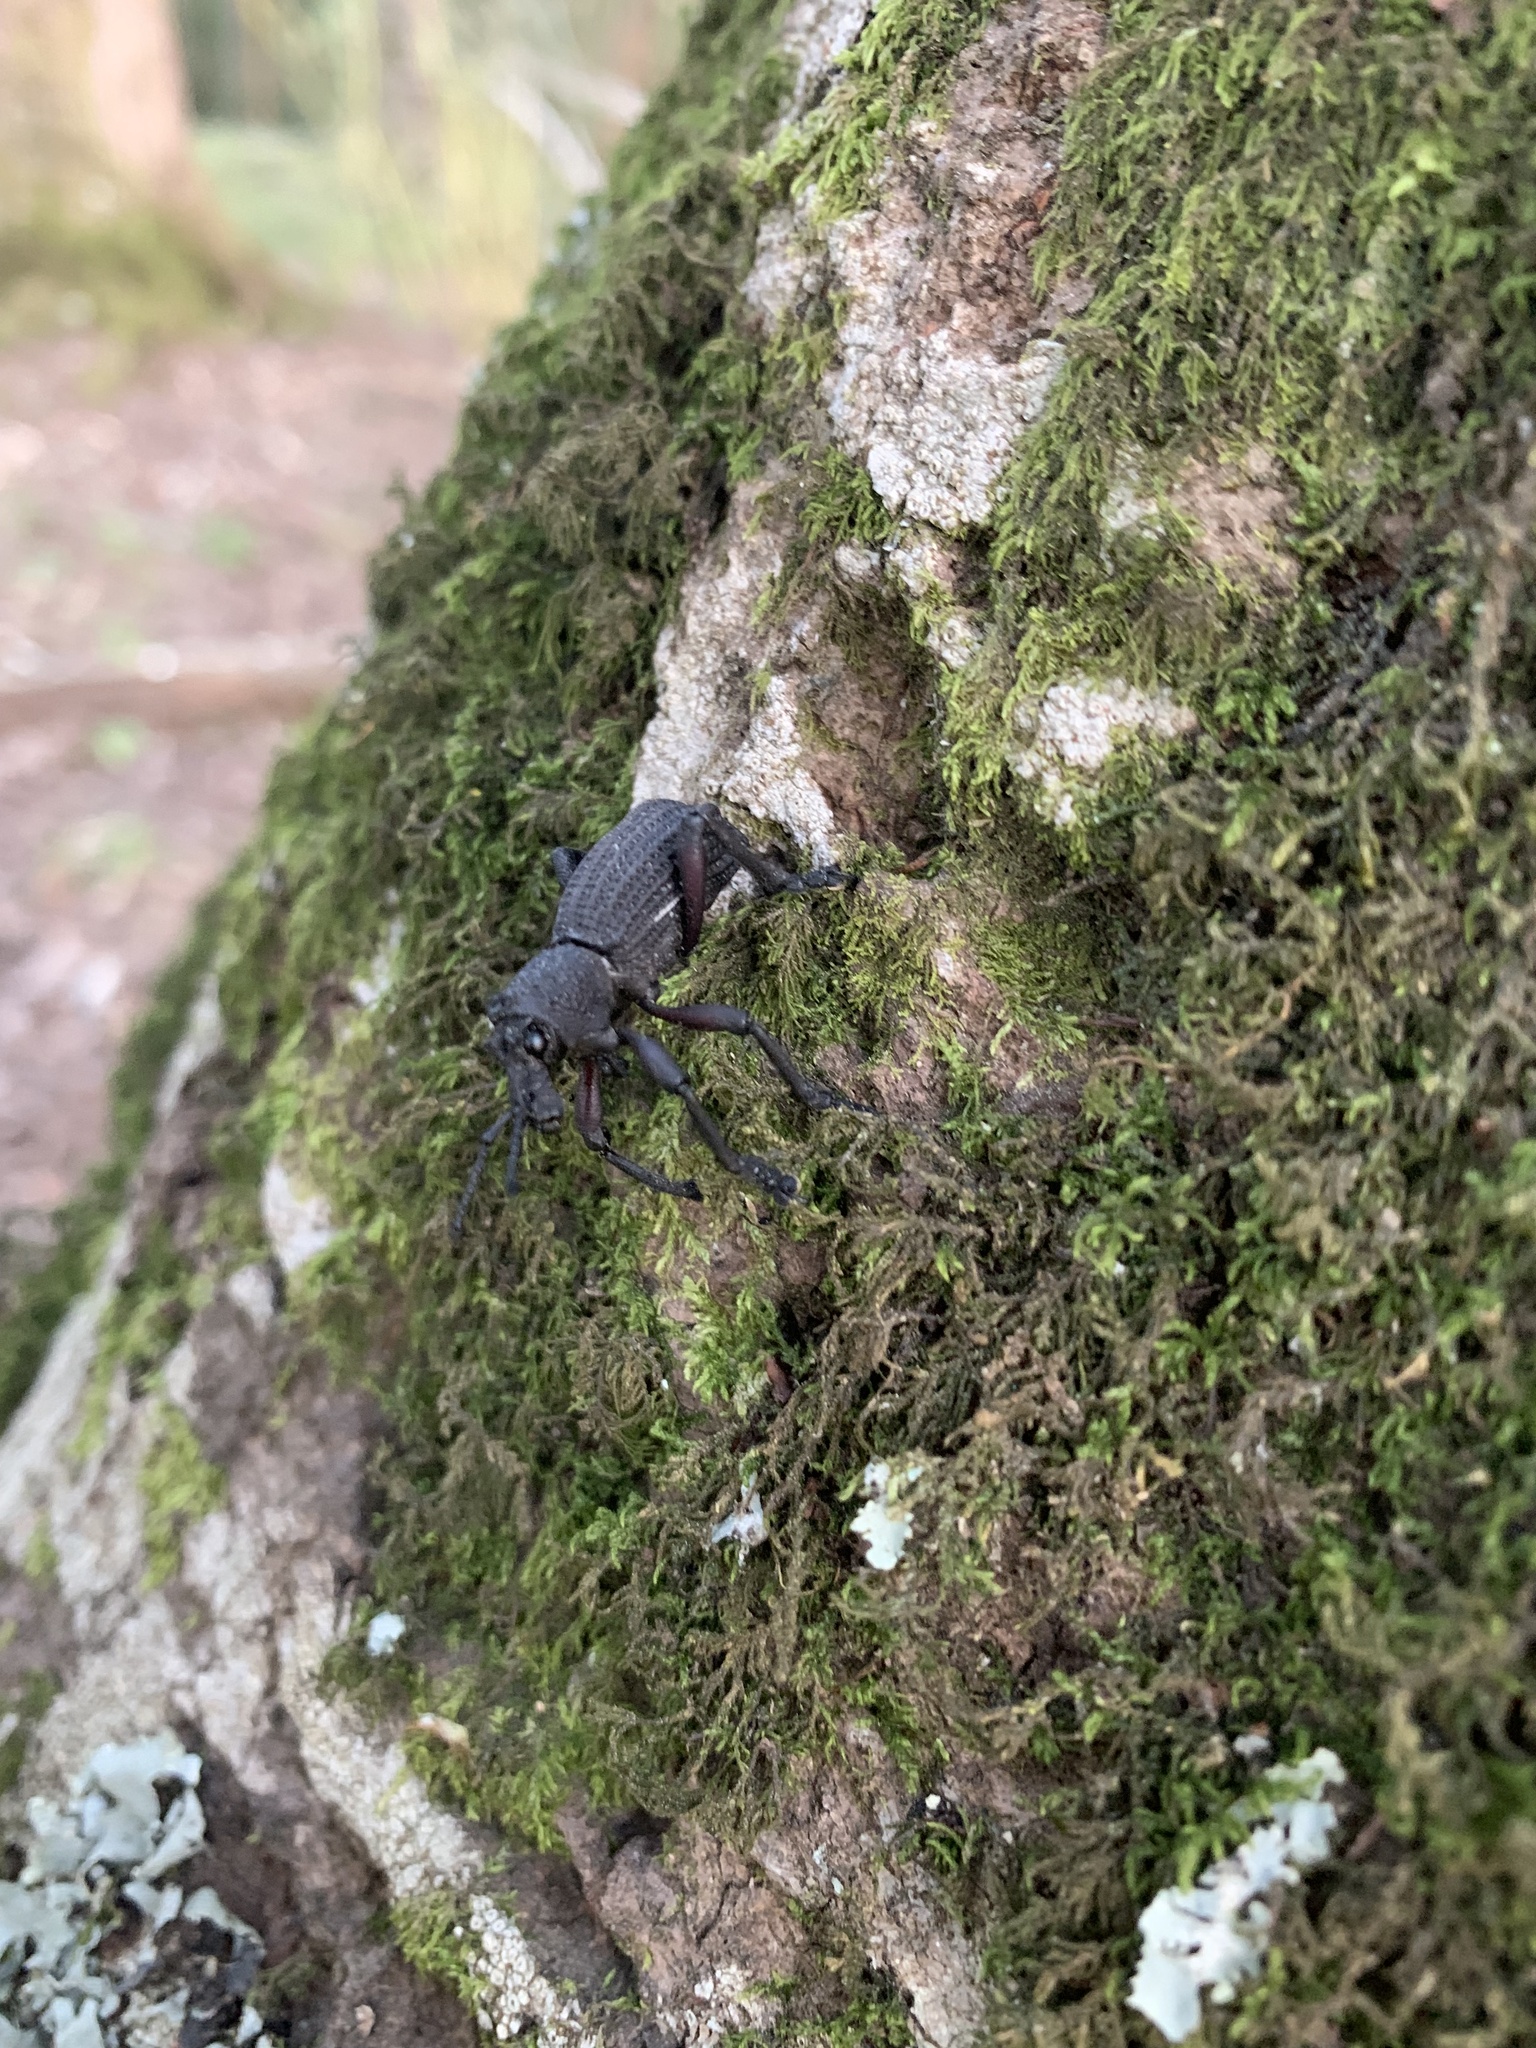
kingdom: Animalia
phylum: Arthropoda
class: Insecta
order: Coleoptera
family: Curculionidae
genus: Aegorhinus
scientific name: Aegorhinus
